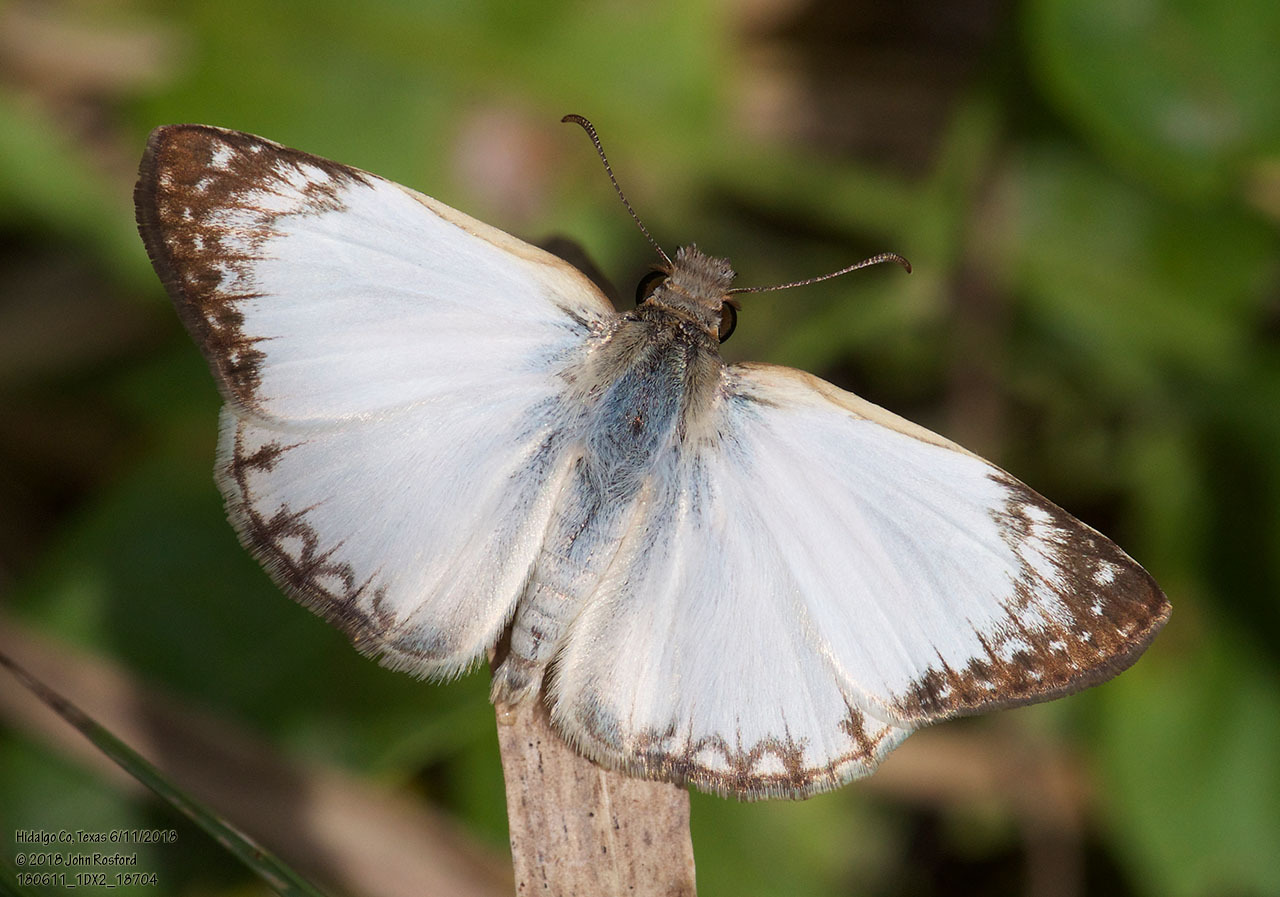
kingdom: Animalia
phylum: Arthropoda
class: Insecta
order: Lepidoptera
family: Hesperiidae
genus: Heliopetes
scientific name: Heliopetes laviana
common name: Laviana white-skipper
